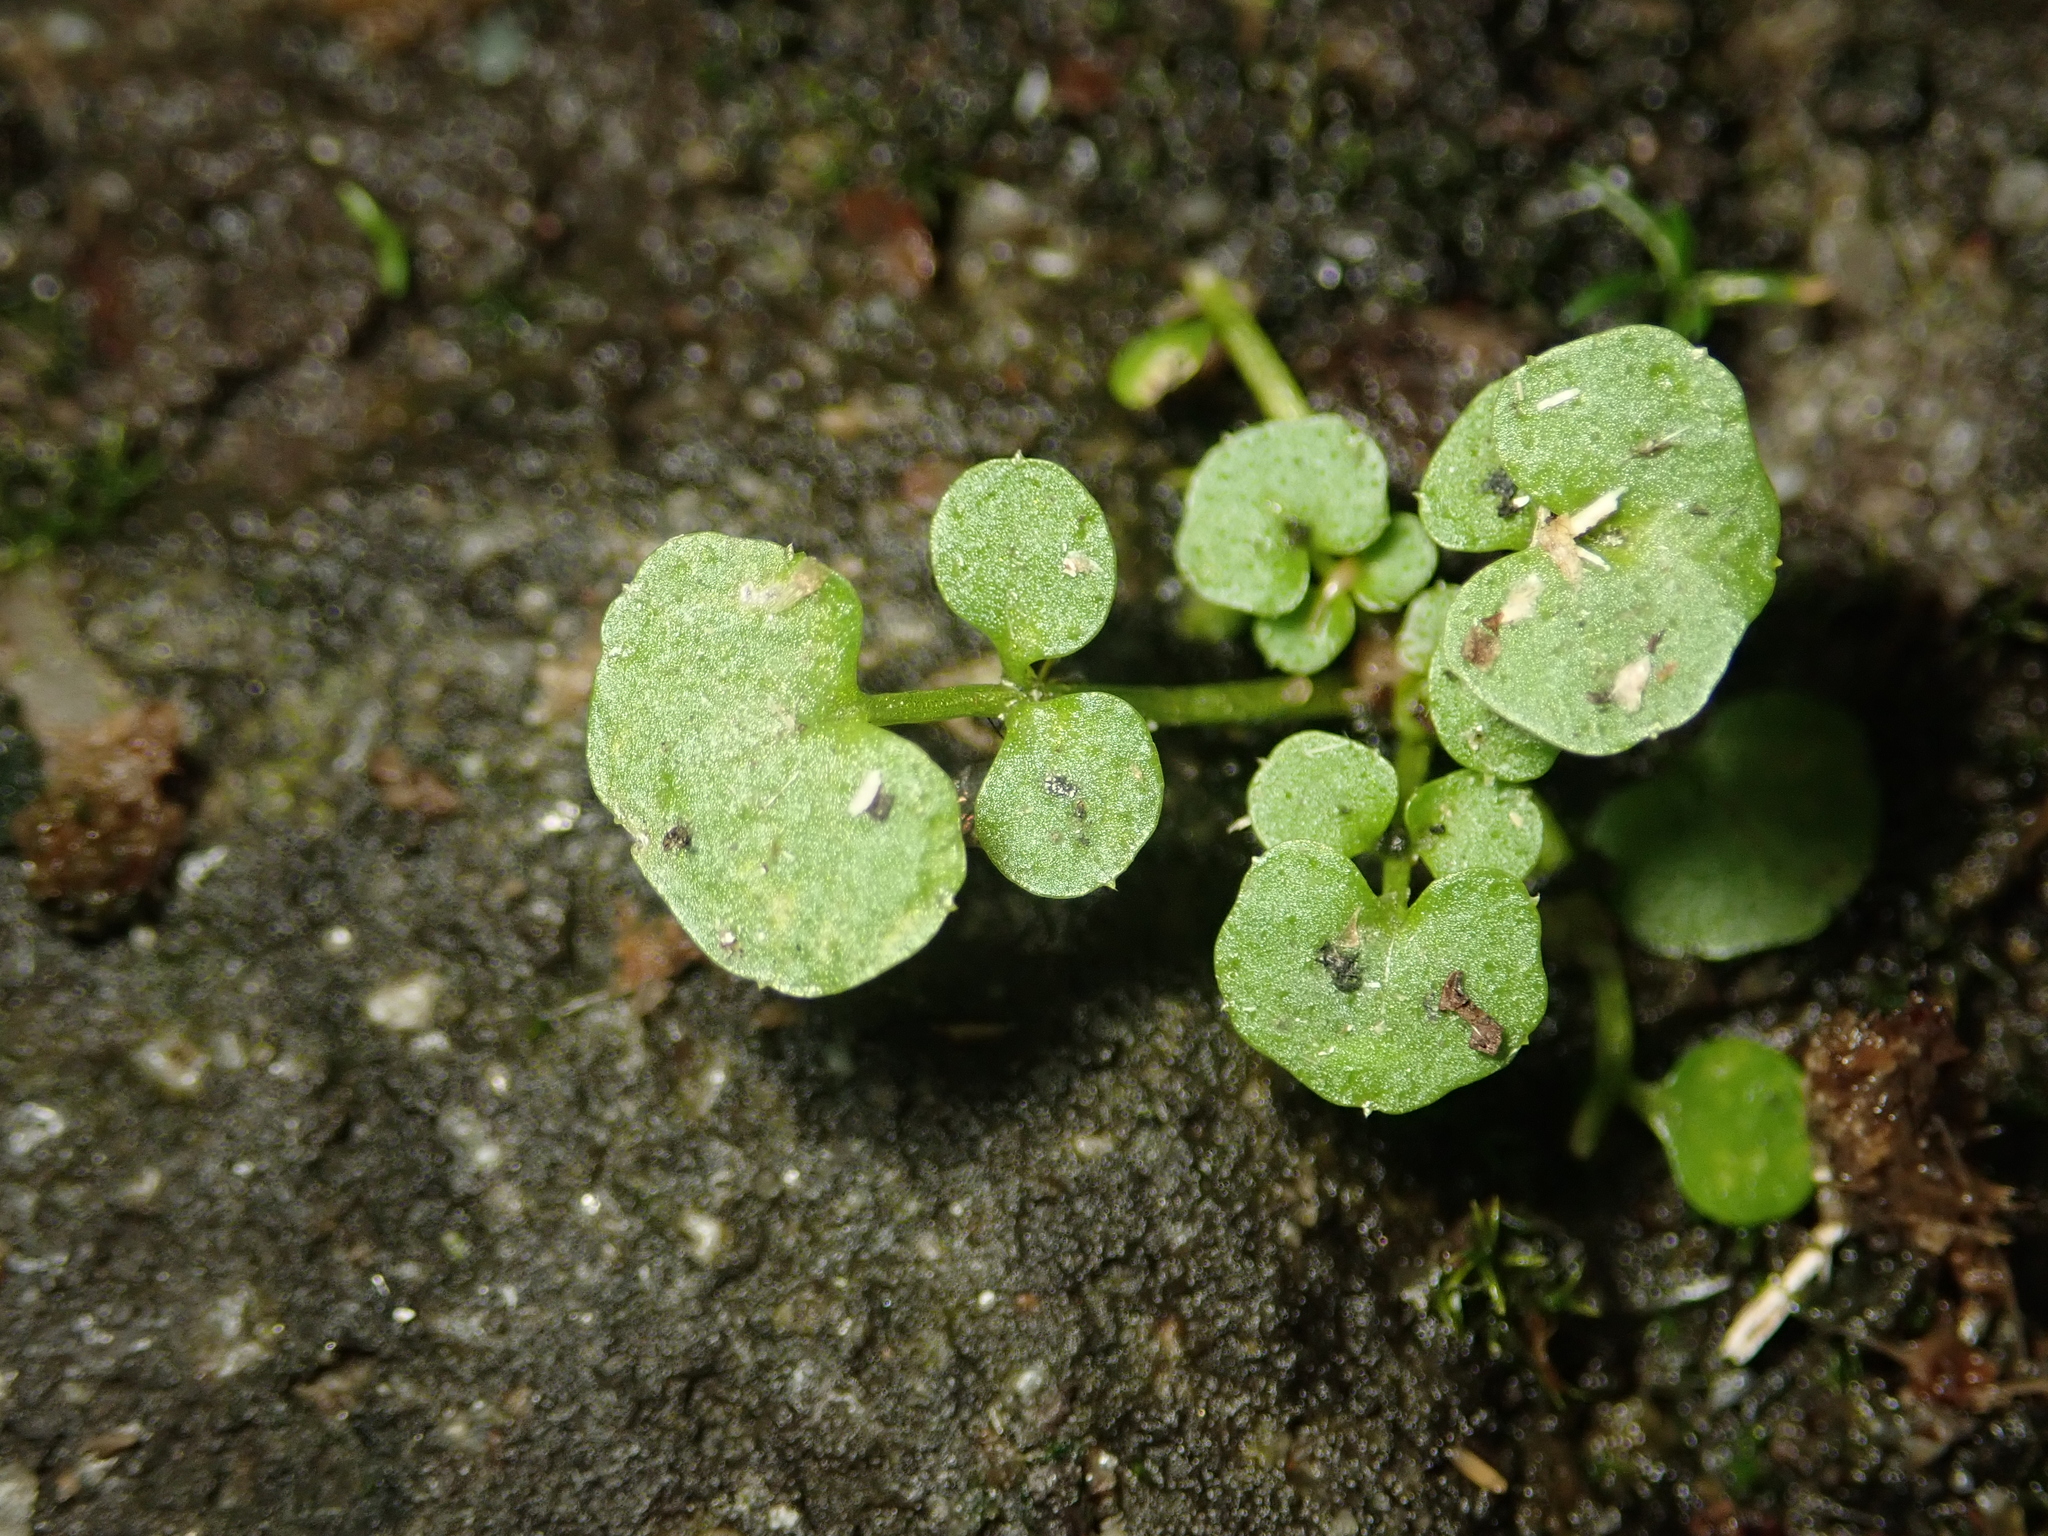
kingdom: Plantae
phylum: Tracheophyta
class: Magnoliopsida
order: Brassicales
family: Brassicaceae
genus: Cardamine
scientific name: Cardamine hirsuta
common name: Hairy bittercress
